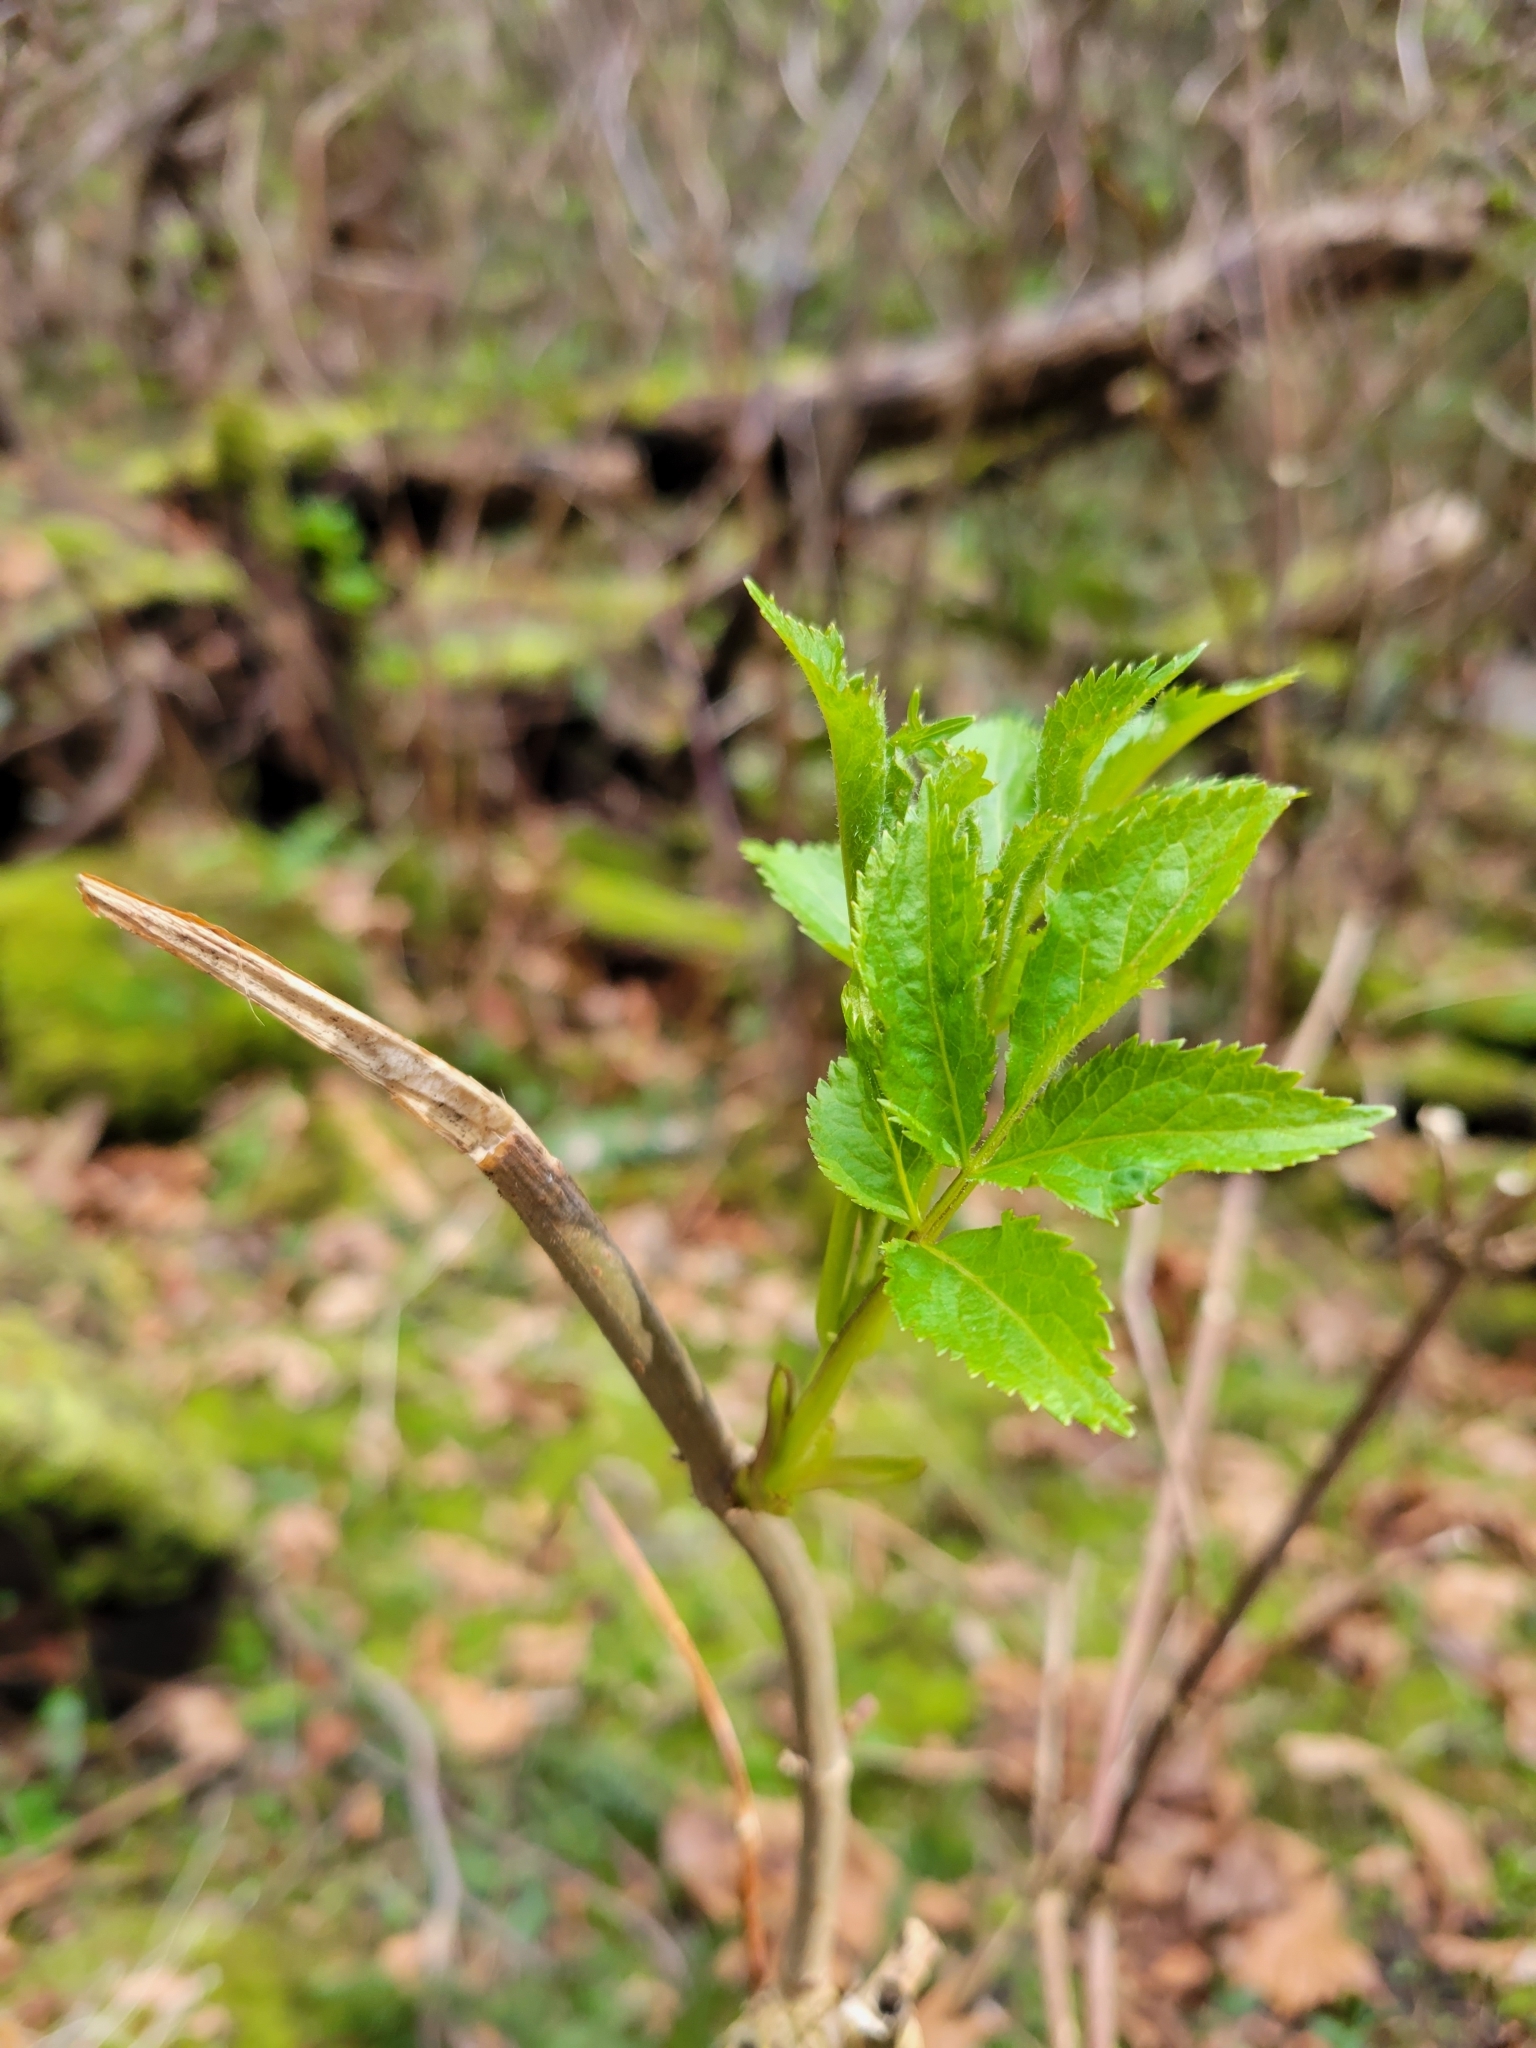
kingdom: Plantae
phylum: Tracheophyta
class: Magnoliopsida
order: Dipsacales
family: Viburnaceae
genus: Sambucus
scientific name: Sambucus racemosa
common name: Red-berried elder
